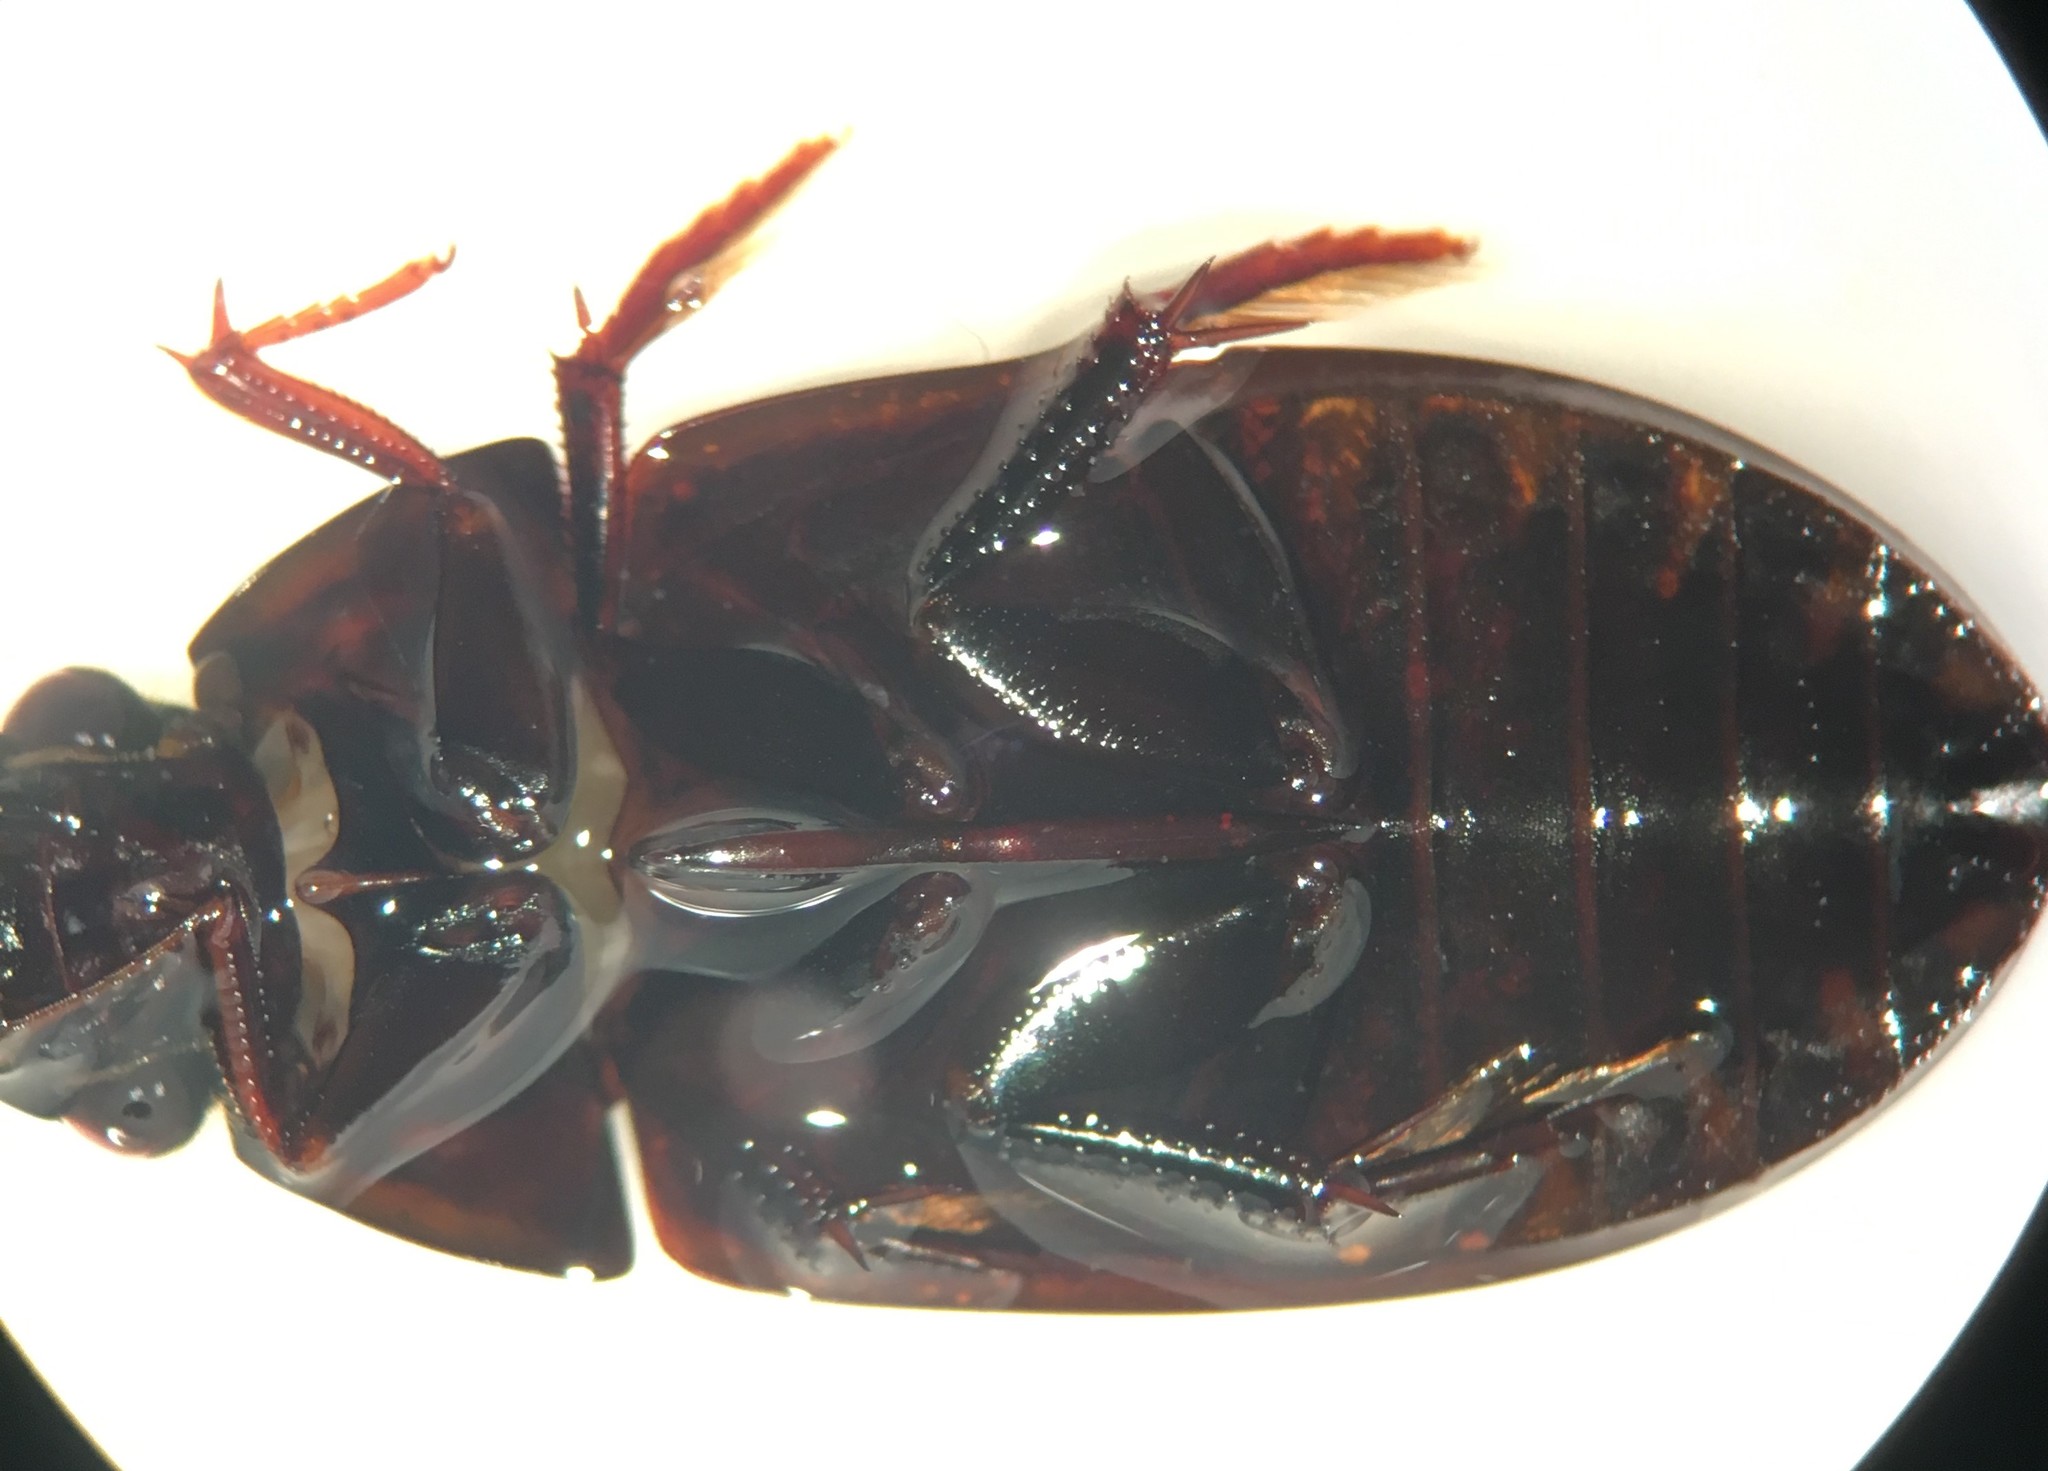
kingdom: Animalia
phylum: Arthropoda
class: Insecta
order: Coleoptera
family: Hydrophilidae
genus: Hydrochara
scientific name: Hydrochara soror
